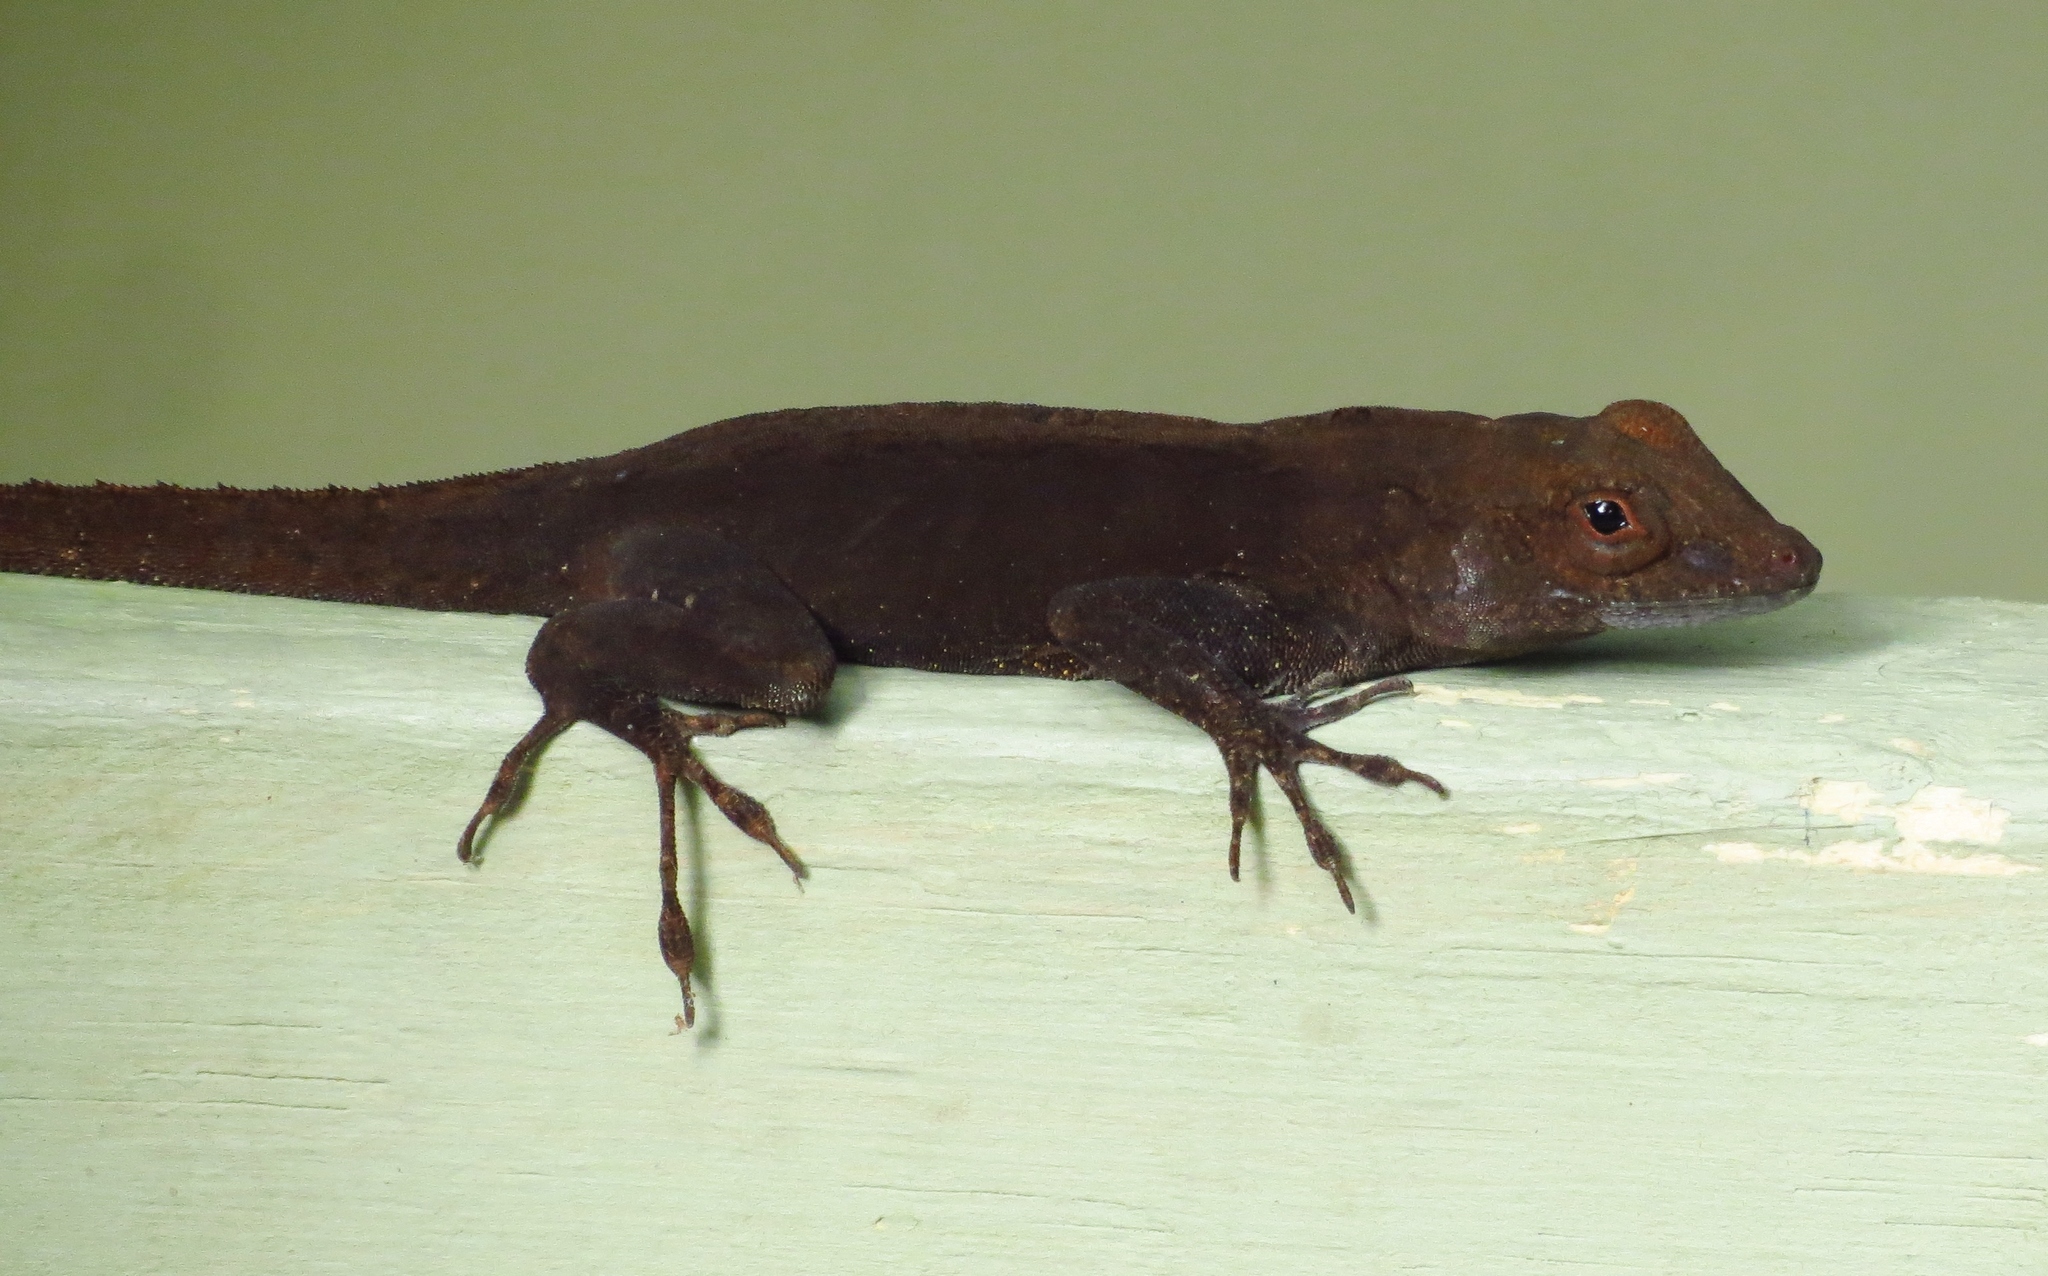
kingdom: Animalia
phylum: Chordata
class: Squamata
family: Dactyloidae
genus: Anolis
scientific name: Anolis cristatellus
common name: Crested anole
